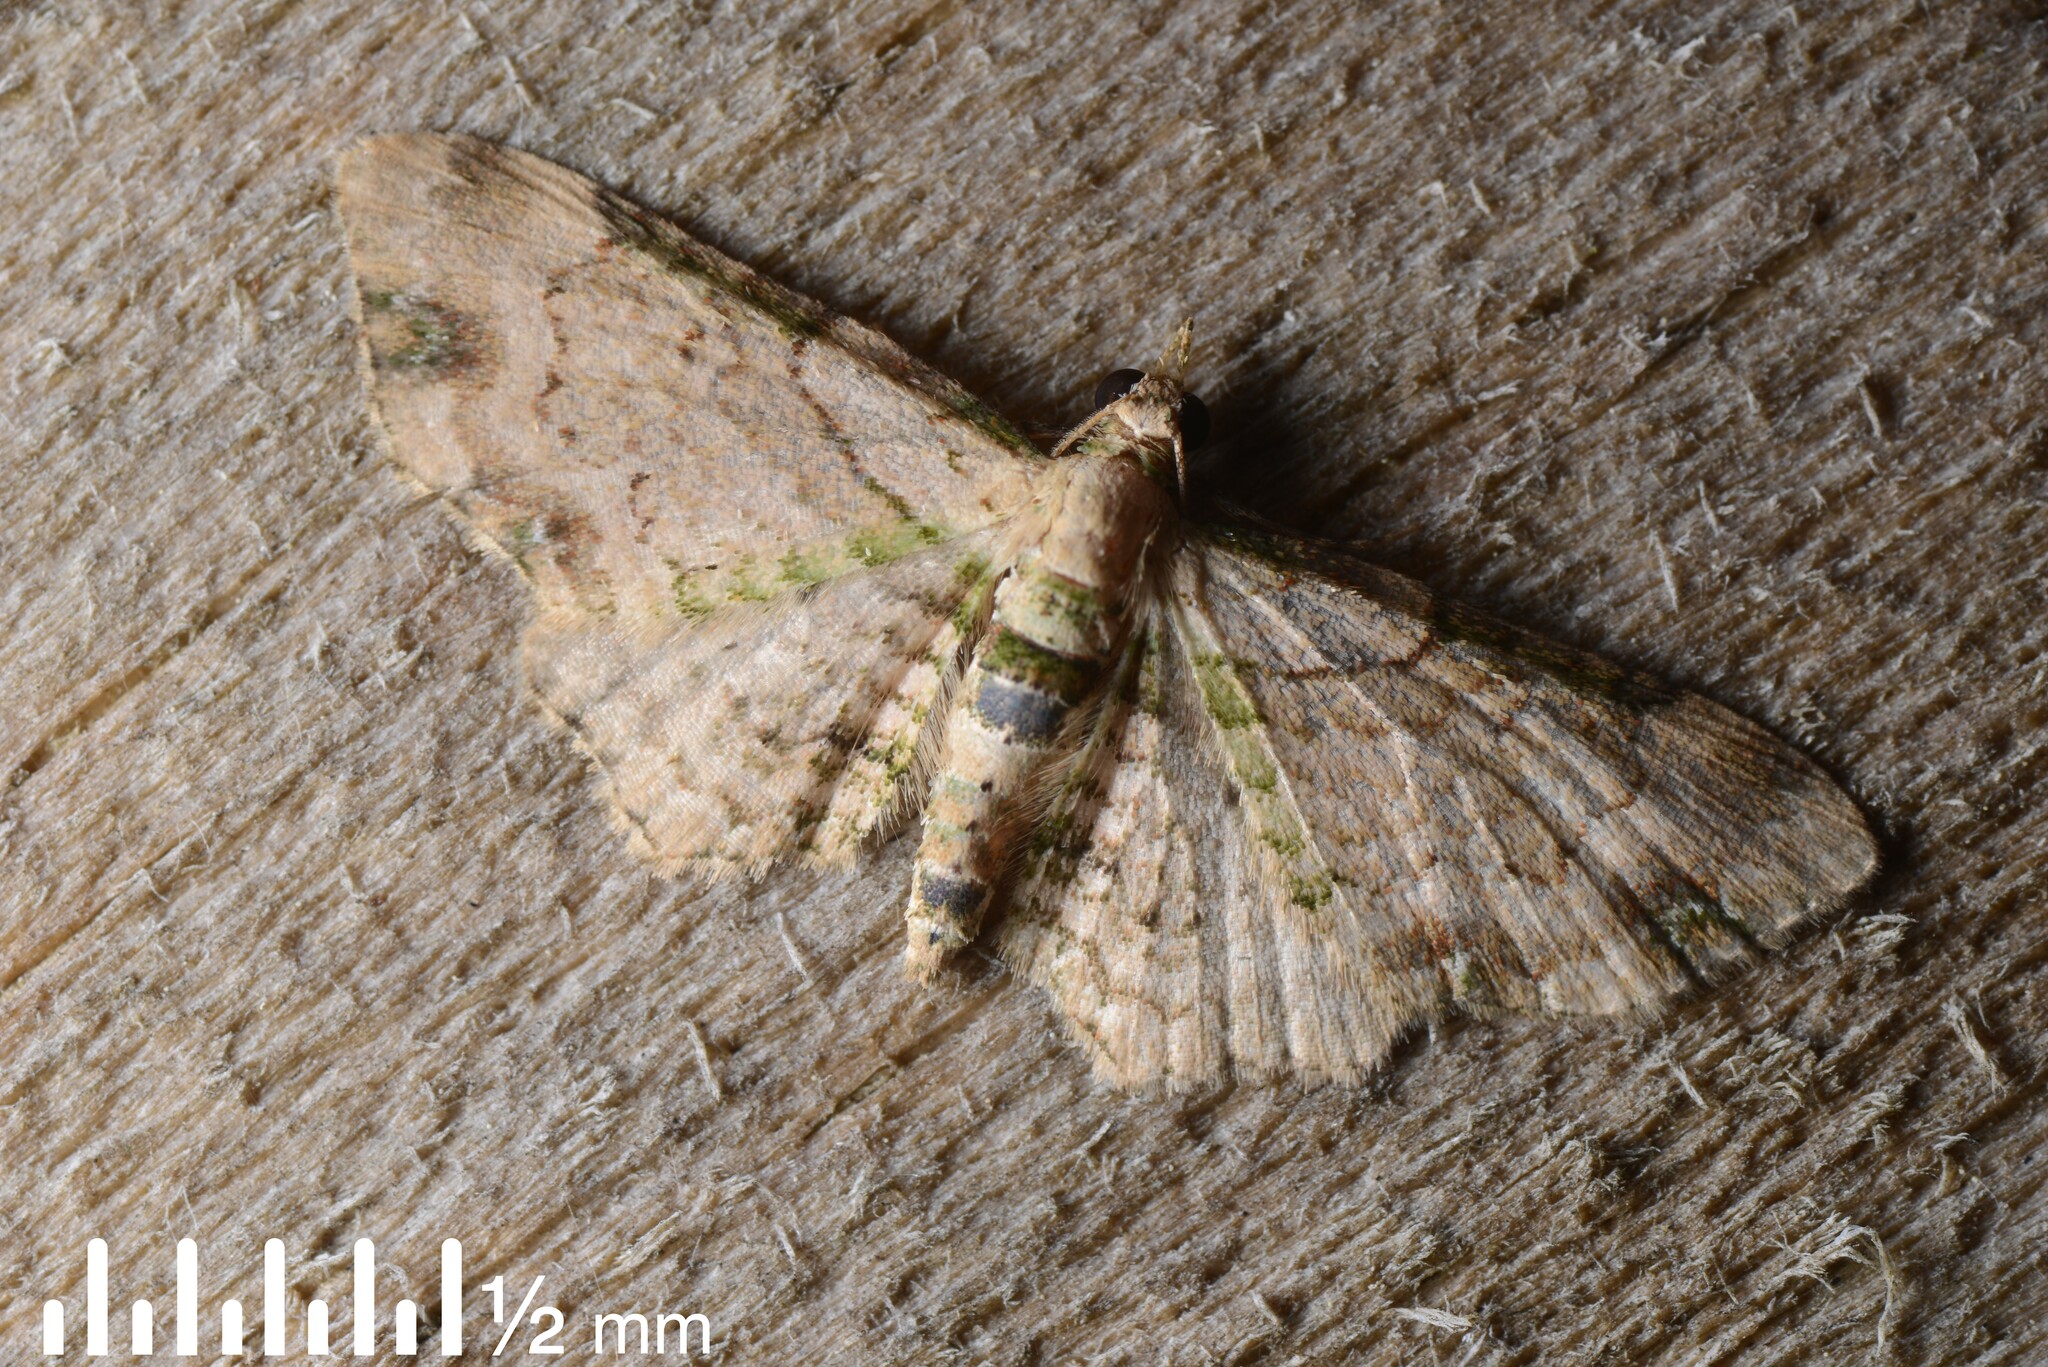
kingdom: Animalia
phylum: Arthropoda
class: Insecta
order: Lepidoptera
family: Geometridae
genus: Chloroclystis
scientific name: Chloroclystis
